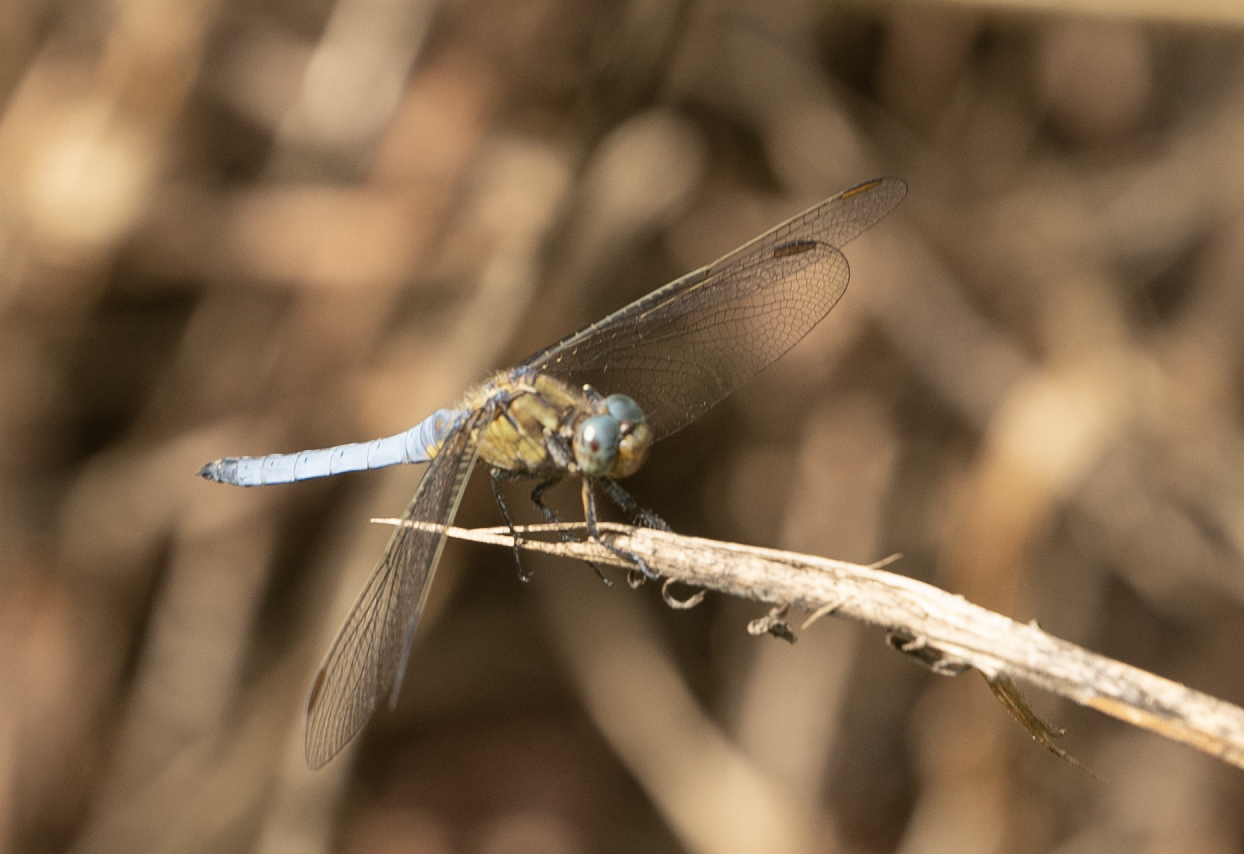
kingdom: Animalia
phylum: Arthropoda
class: Insecta
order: Odonata
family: Libellulidae
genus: Orthetrum
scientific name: Orthetrum coerulescens
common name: Keeled skimmer
